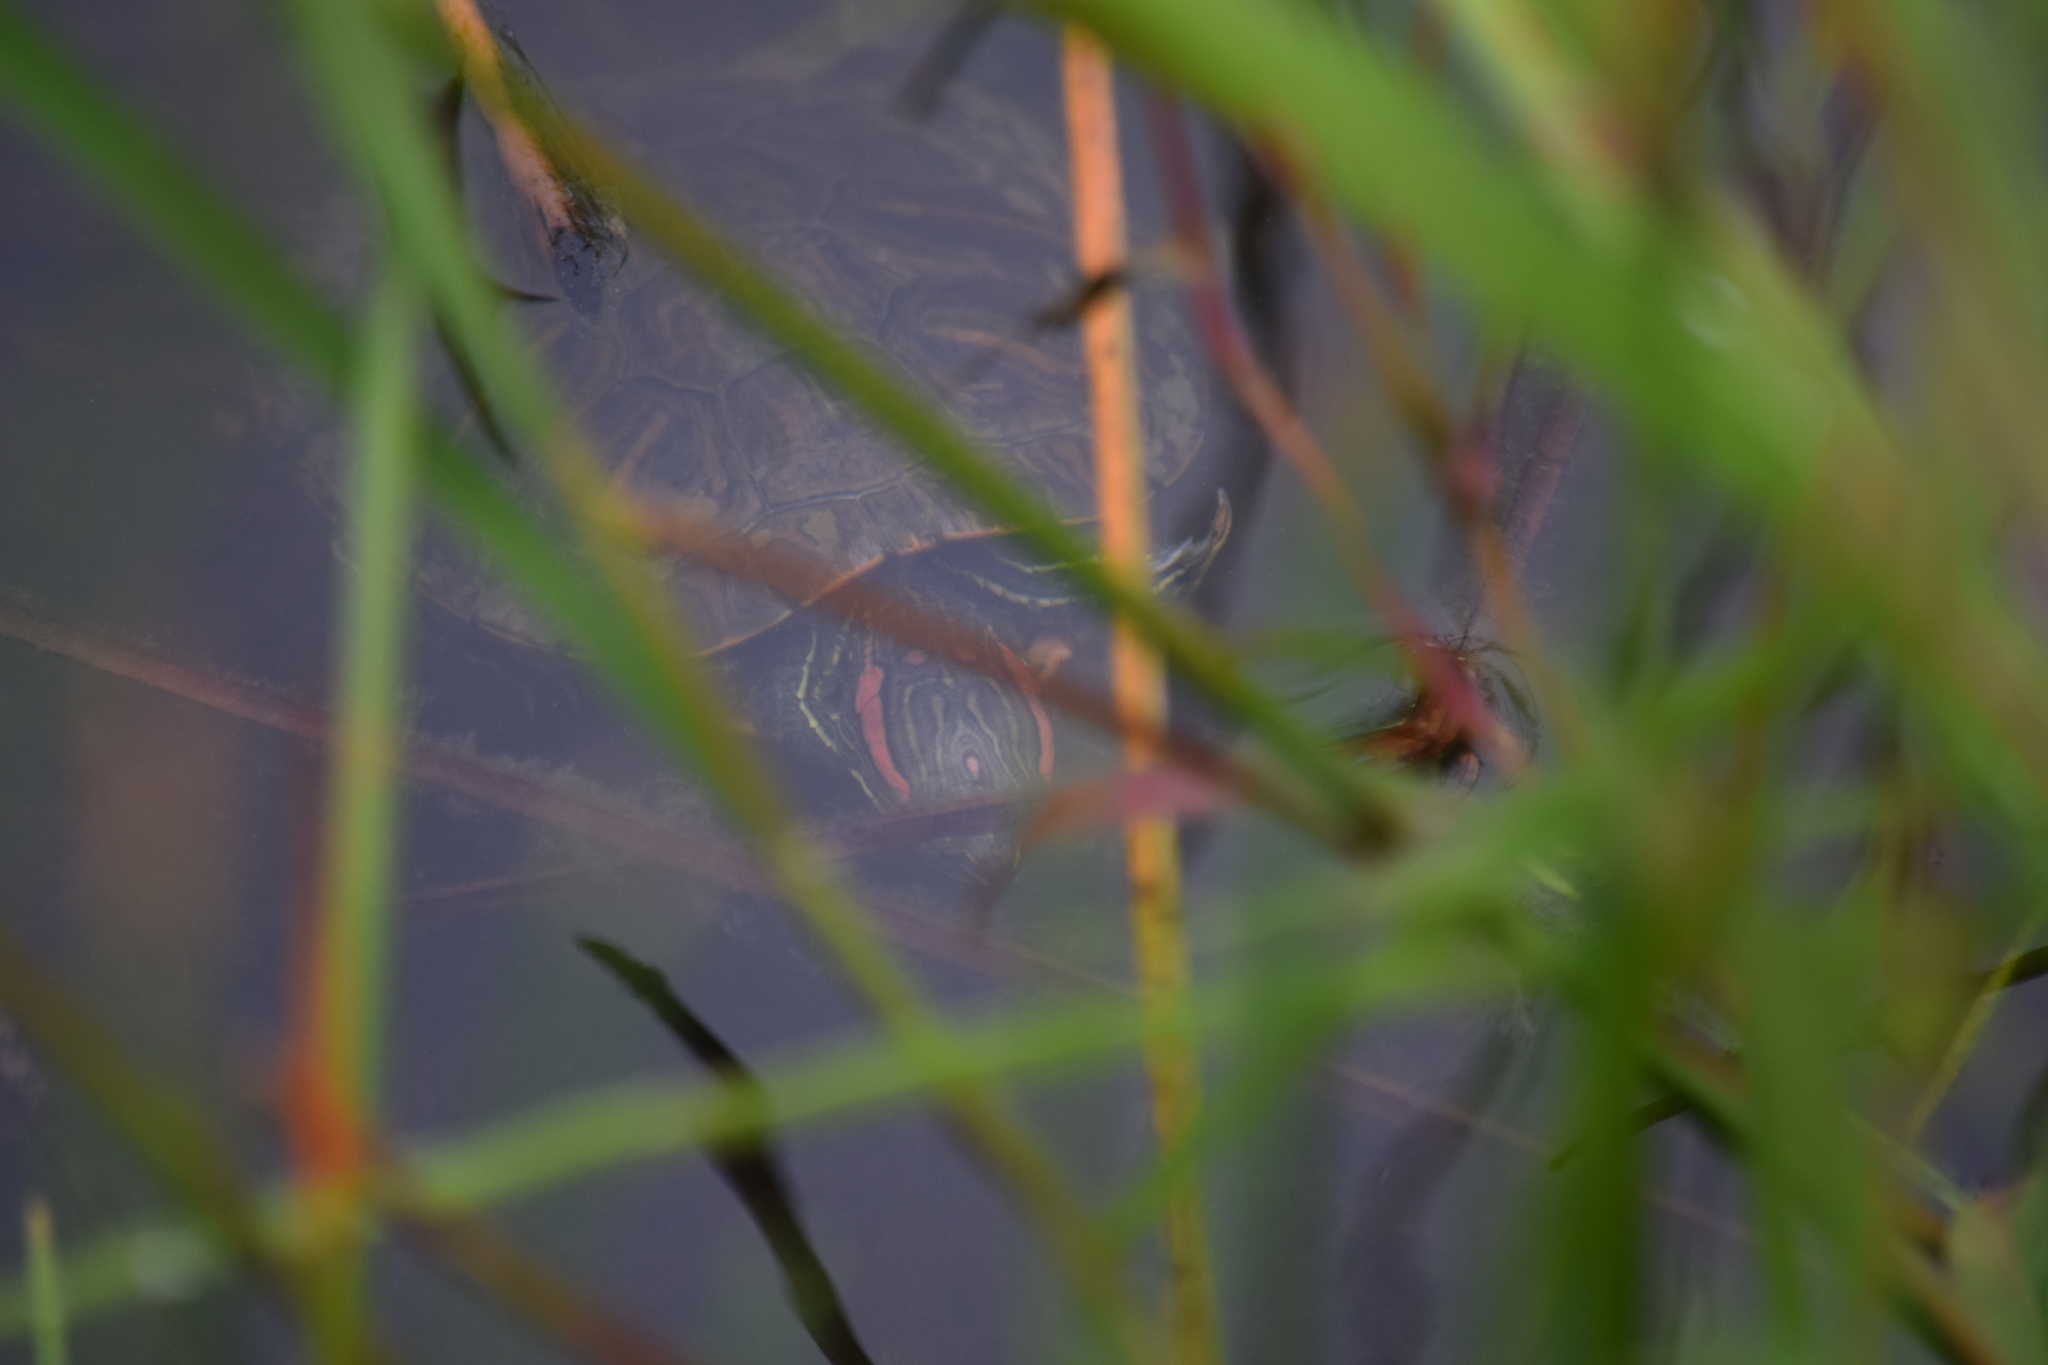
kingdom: Animalia
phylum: Chordata
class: Testudines
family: Emydidae
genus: Trachemys
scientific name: Trachemys scripta
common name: Slider
